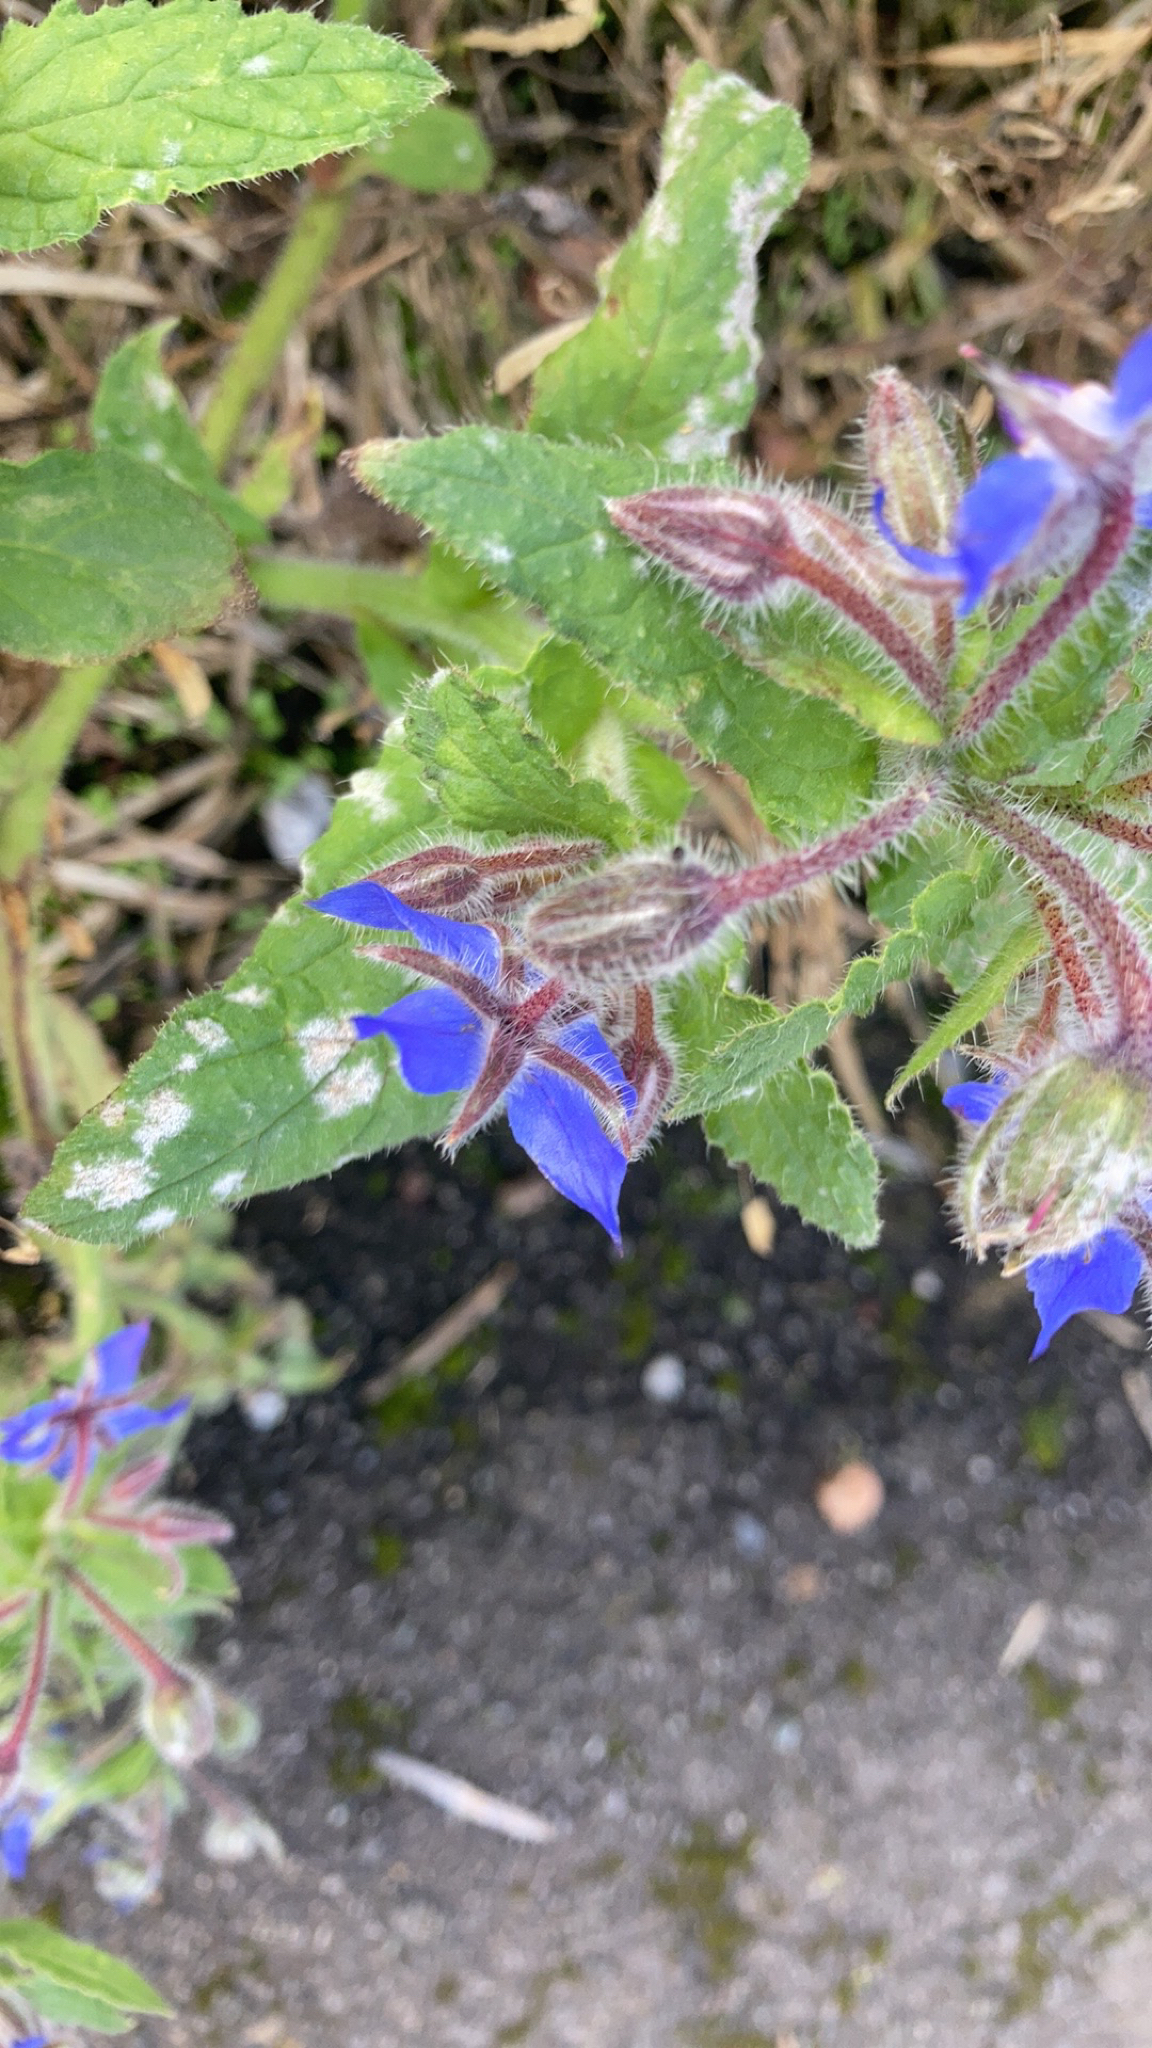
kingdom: Plantae
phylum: Tracheophyta
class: Magnoliopsida
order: Boraginales
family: Boraginaceae
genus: Borago
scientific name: Borago officinalis
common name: Borage
